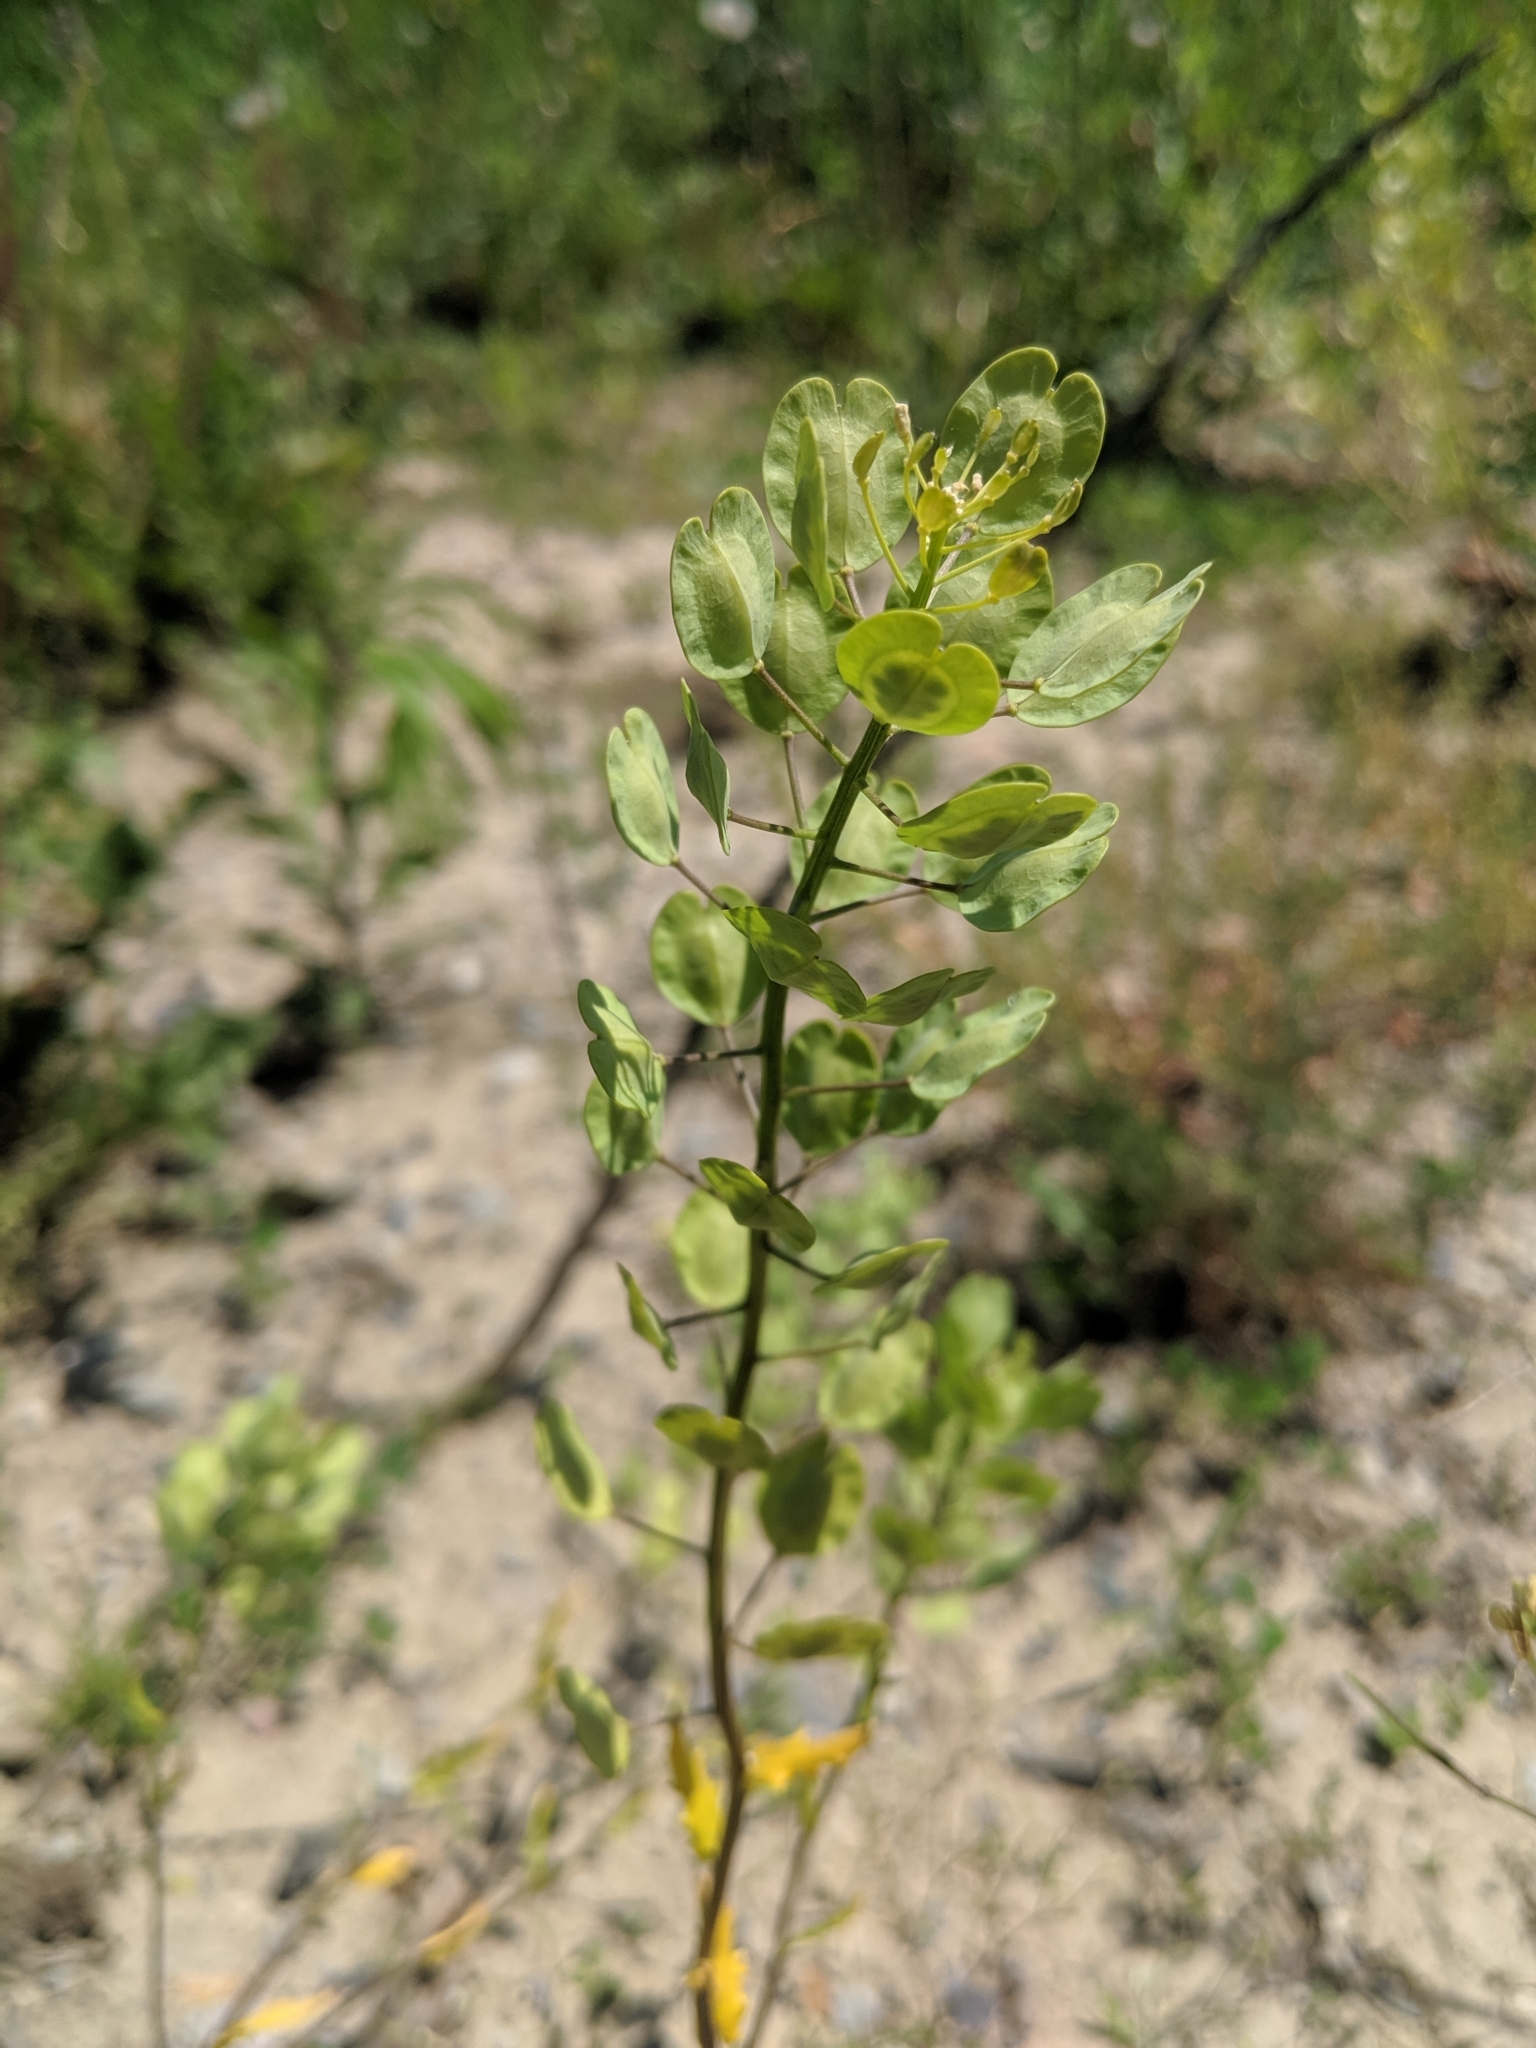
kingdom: Plantae
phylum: Tracheophyta
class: Magnoliopsida
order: Brassicales
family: Brassicaceae
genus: Thlaspi
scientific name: Thlaspi arvense
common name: Field pennycress
